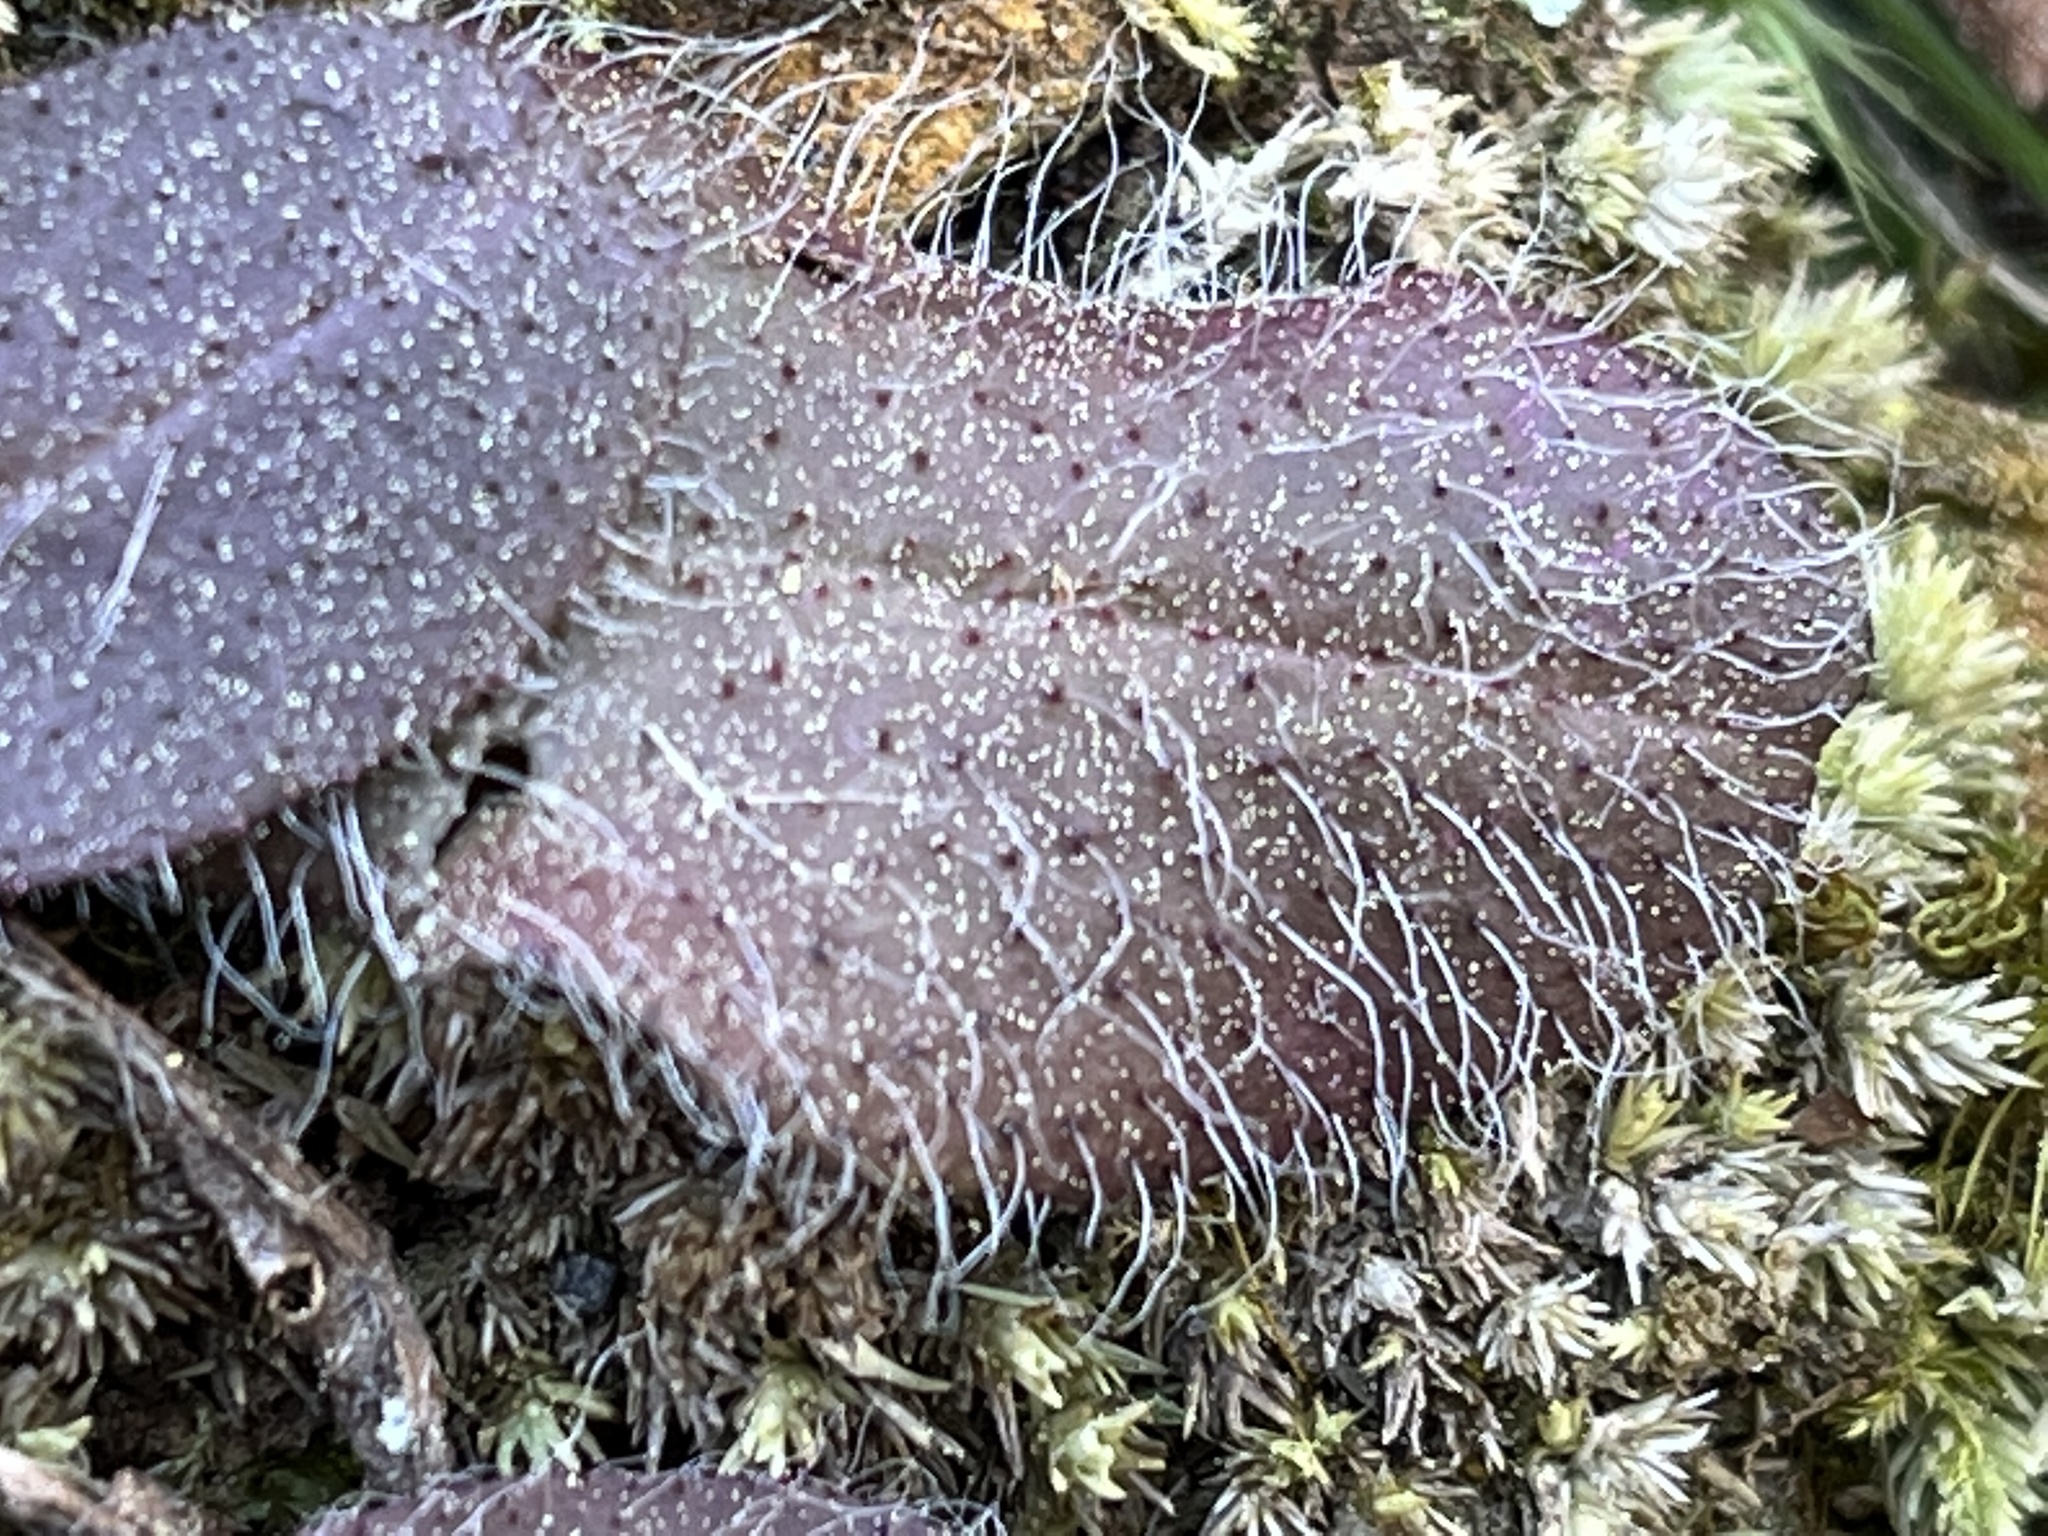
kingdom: Plantae
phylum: Tracheophyta
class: Magnoliopsida
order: Asterales
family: Asteraceae
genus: Hieracium
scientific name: Hieracium gronovii
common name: Beaked hawkweed
